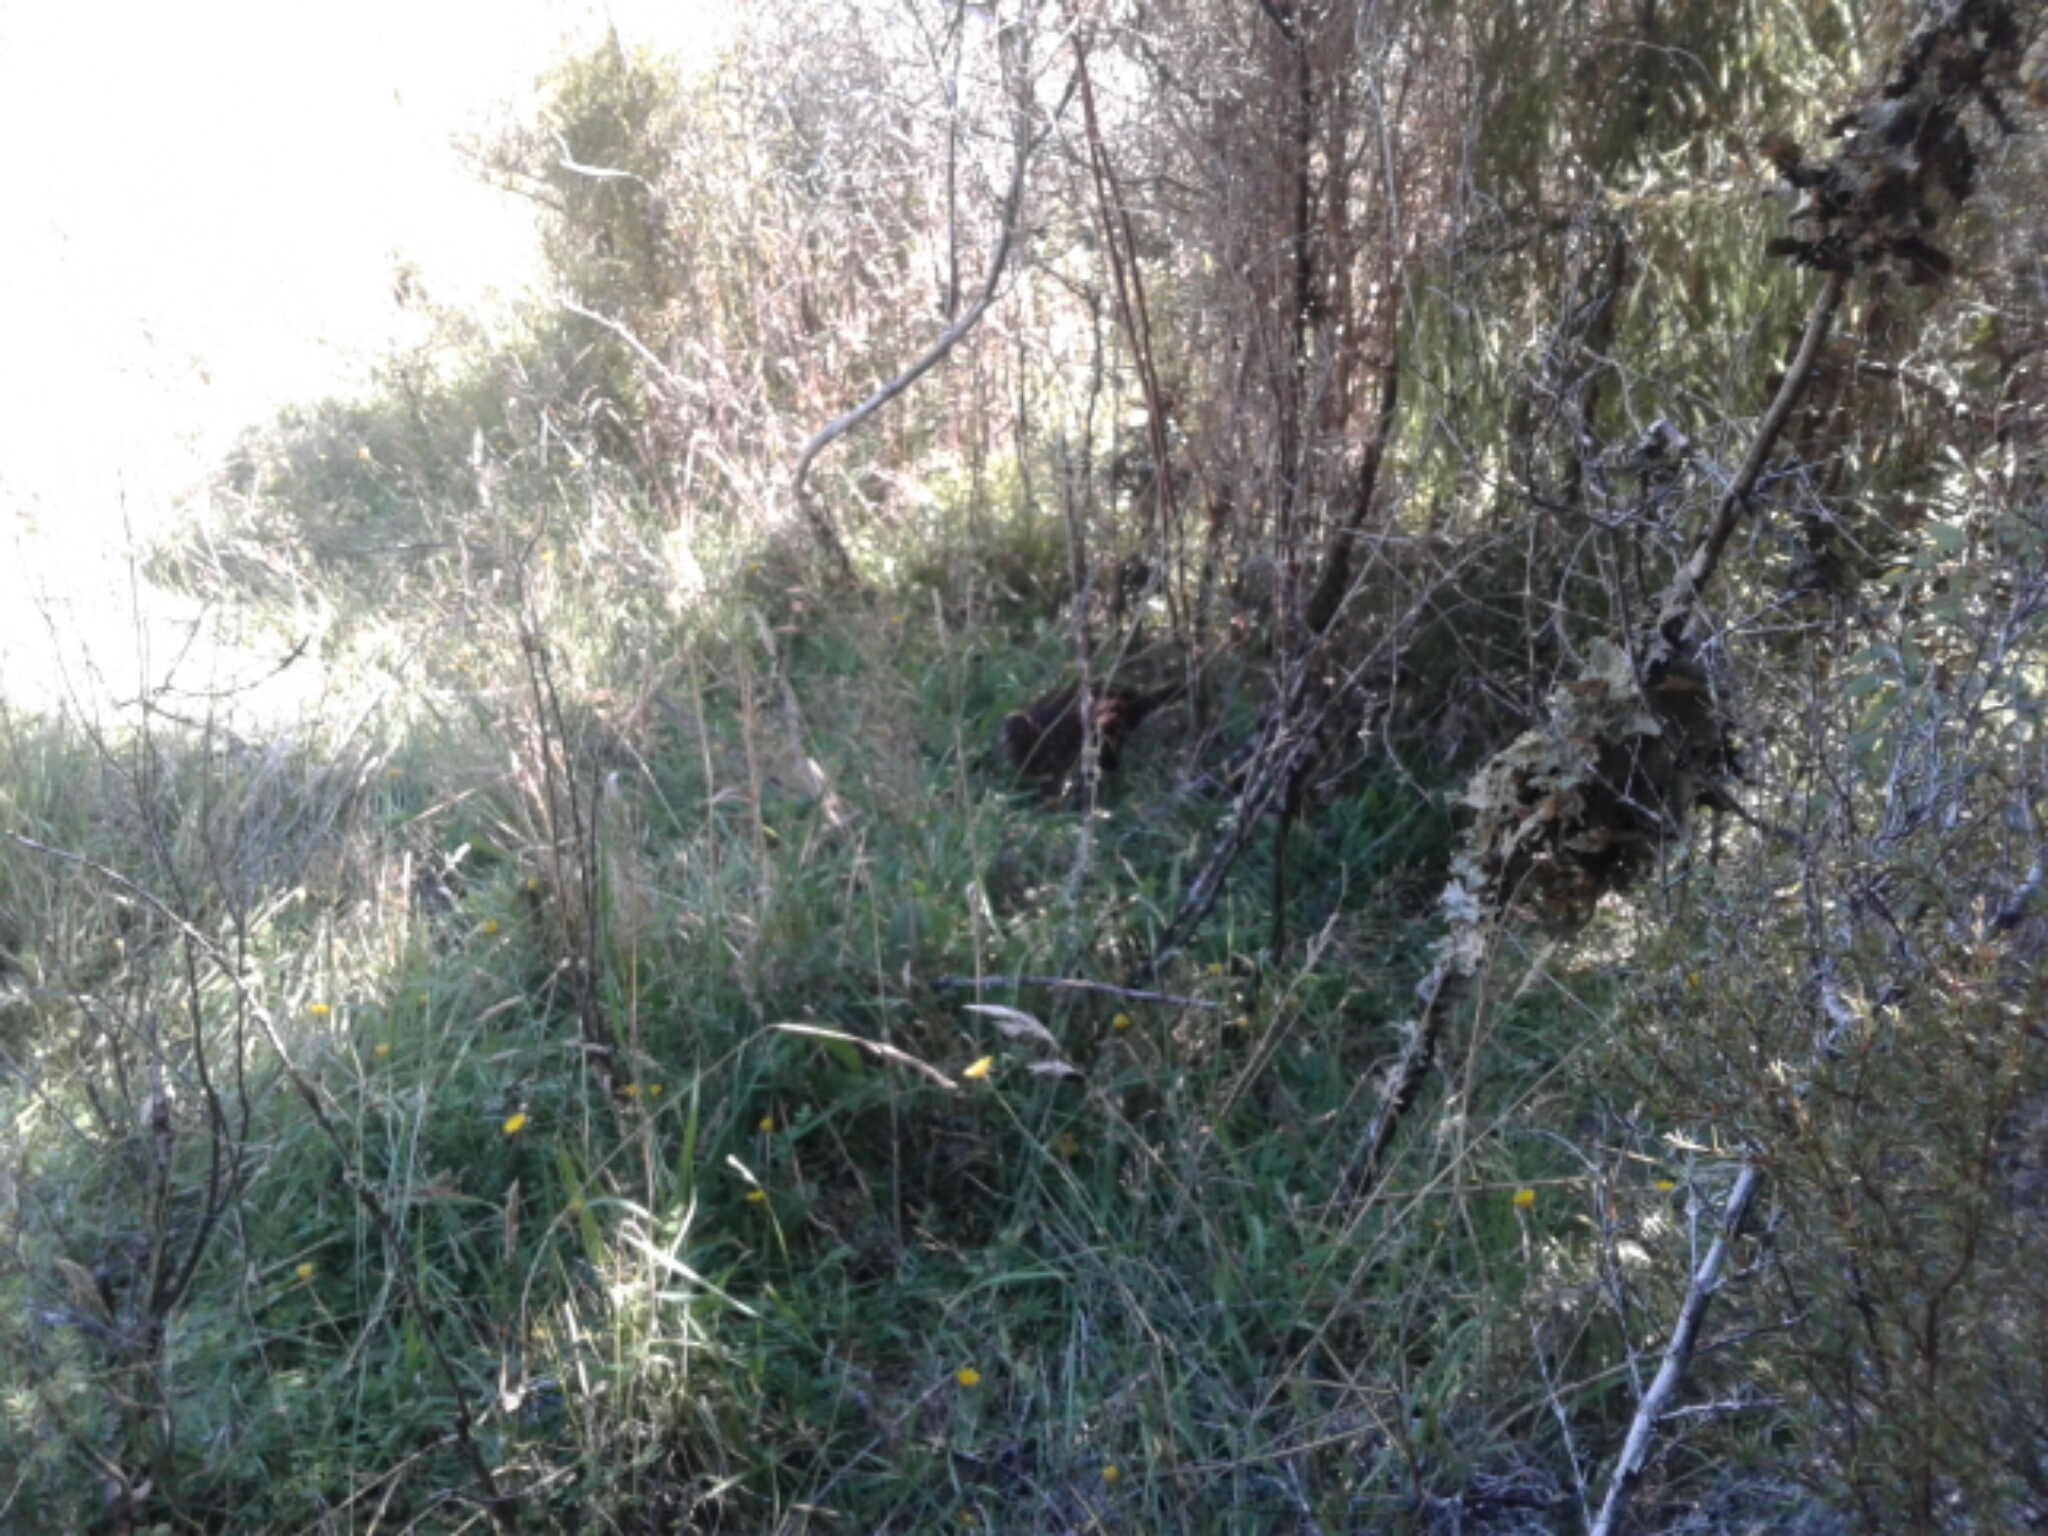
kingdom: Animalia
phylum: Chordata
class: Aves
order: Gruiformes
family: Rallidae
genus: Gallirallus
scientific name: Gallirallus australis
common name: Weka
